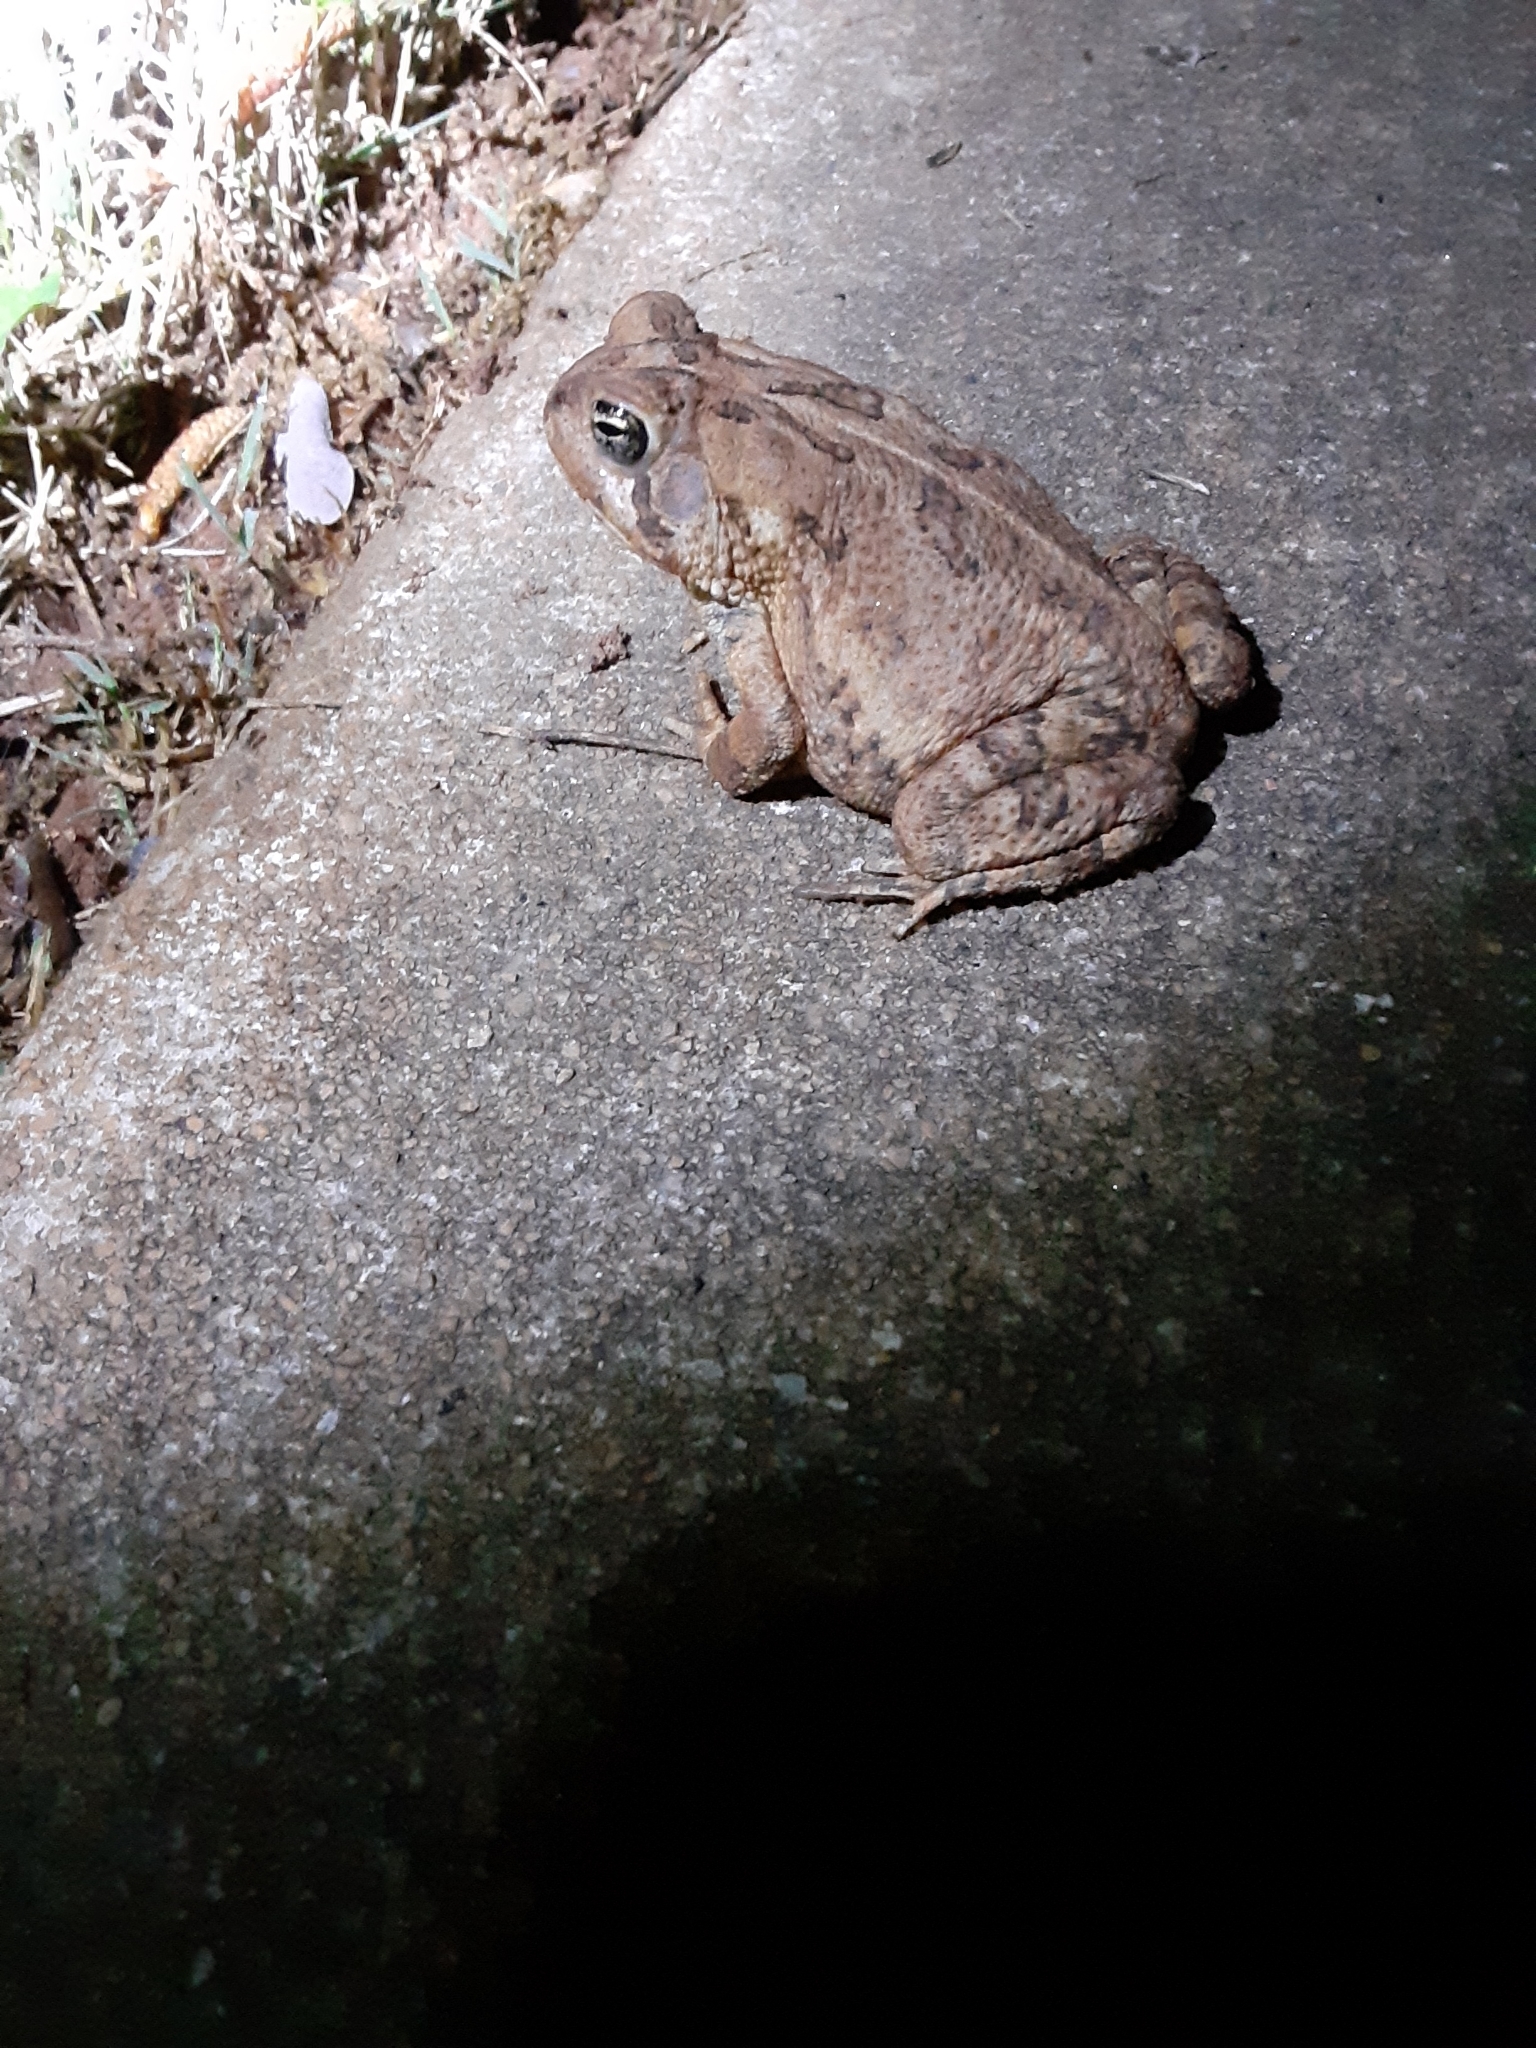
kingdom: Animalia
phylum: Chordata
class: Amphibia
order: Anura
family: Bufonidae
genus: Anaxyrus
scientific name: Anaxyrus fowleri
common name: Fowler's toad
